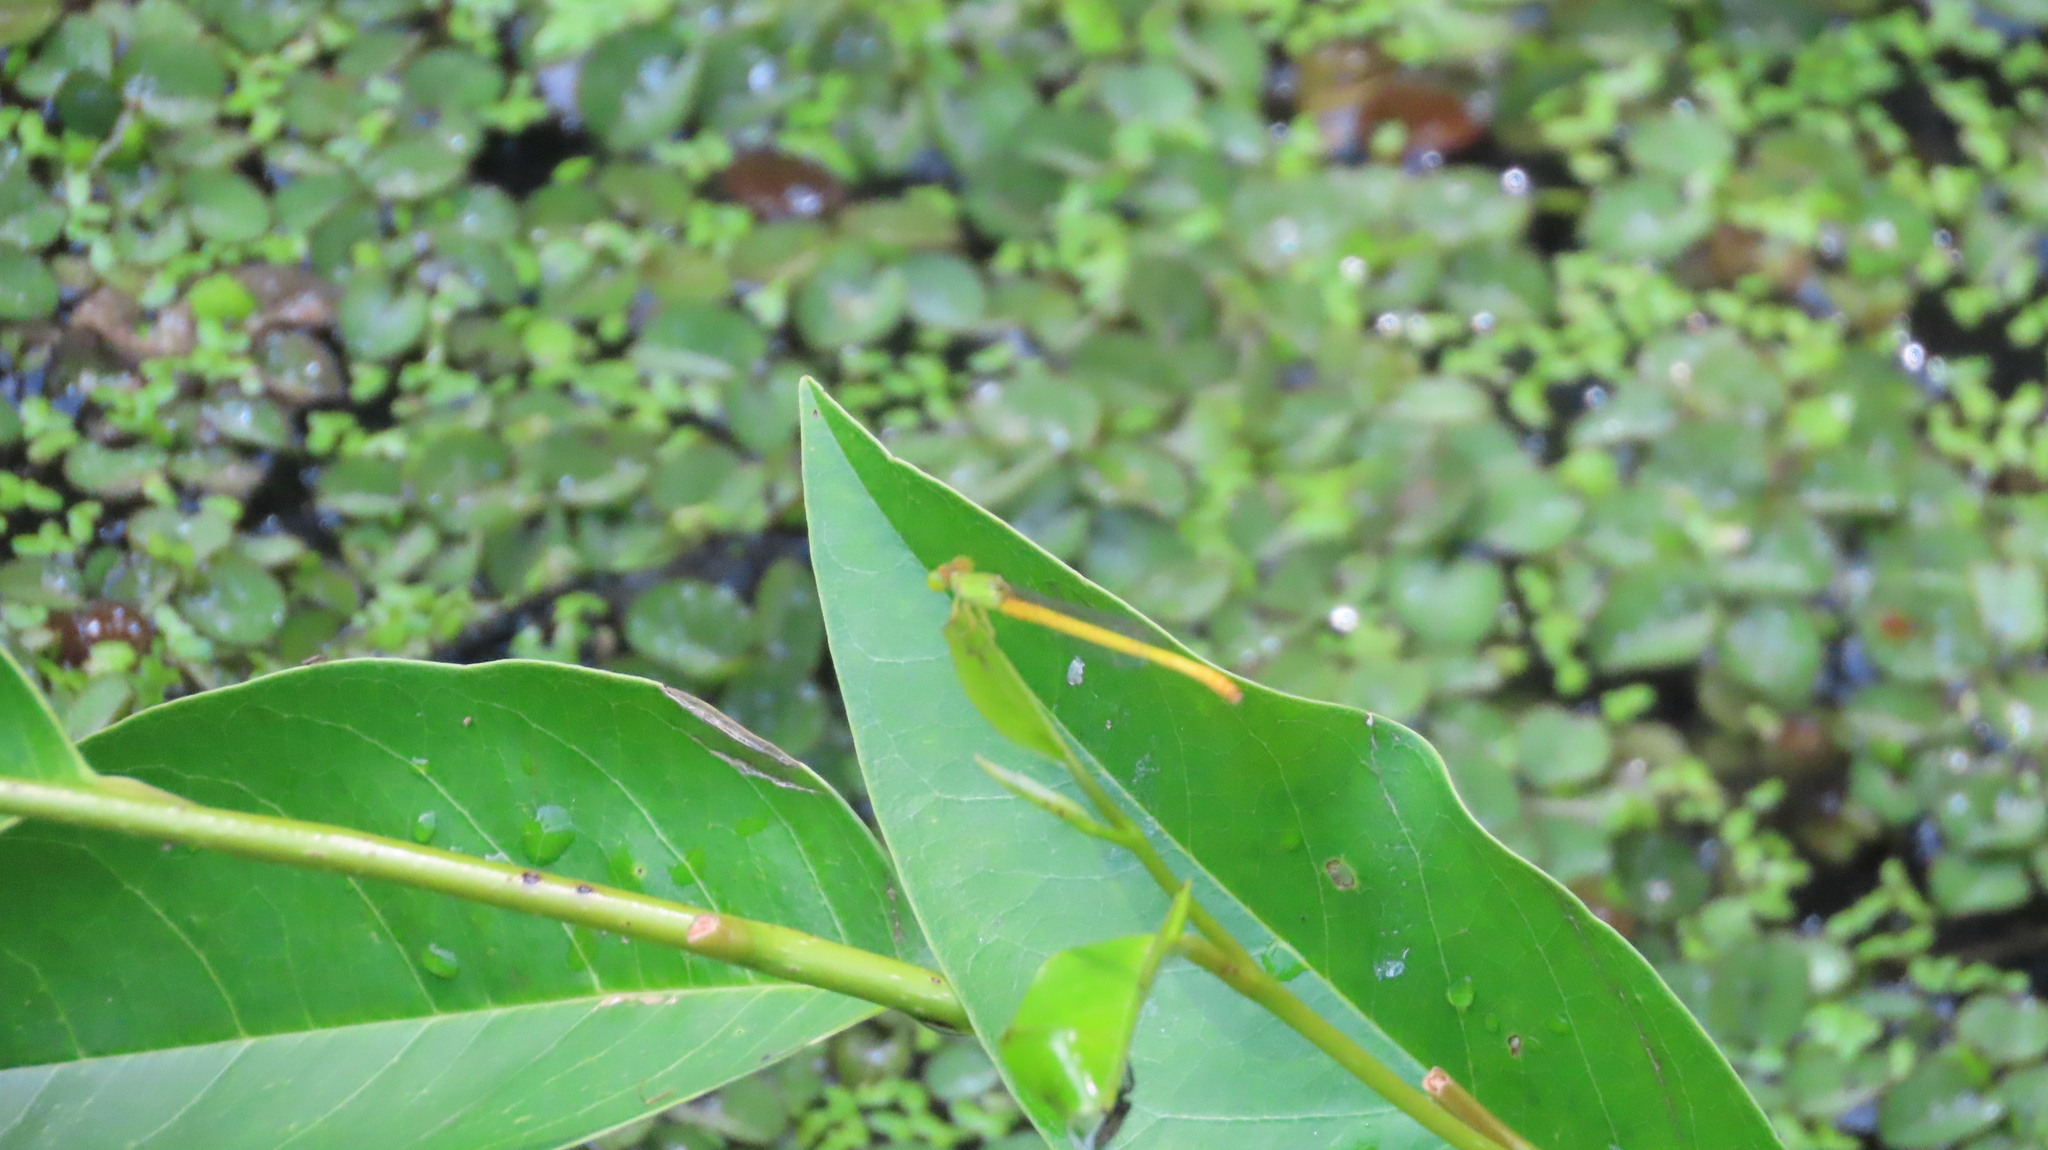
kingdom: Animalia
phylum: Arthropoda
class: Insecta
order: Odonata
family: Coenagrionidae
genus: Ceriagrion
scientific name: Ceriagrion coromandelianum
